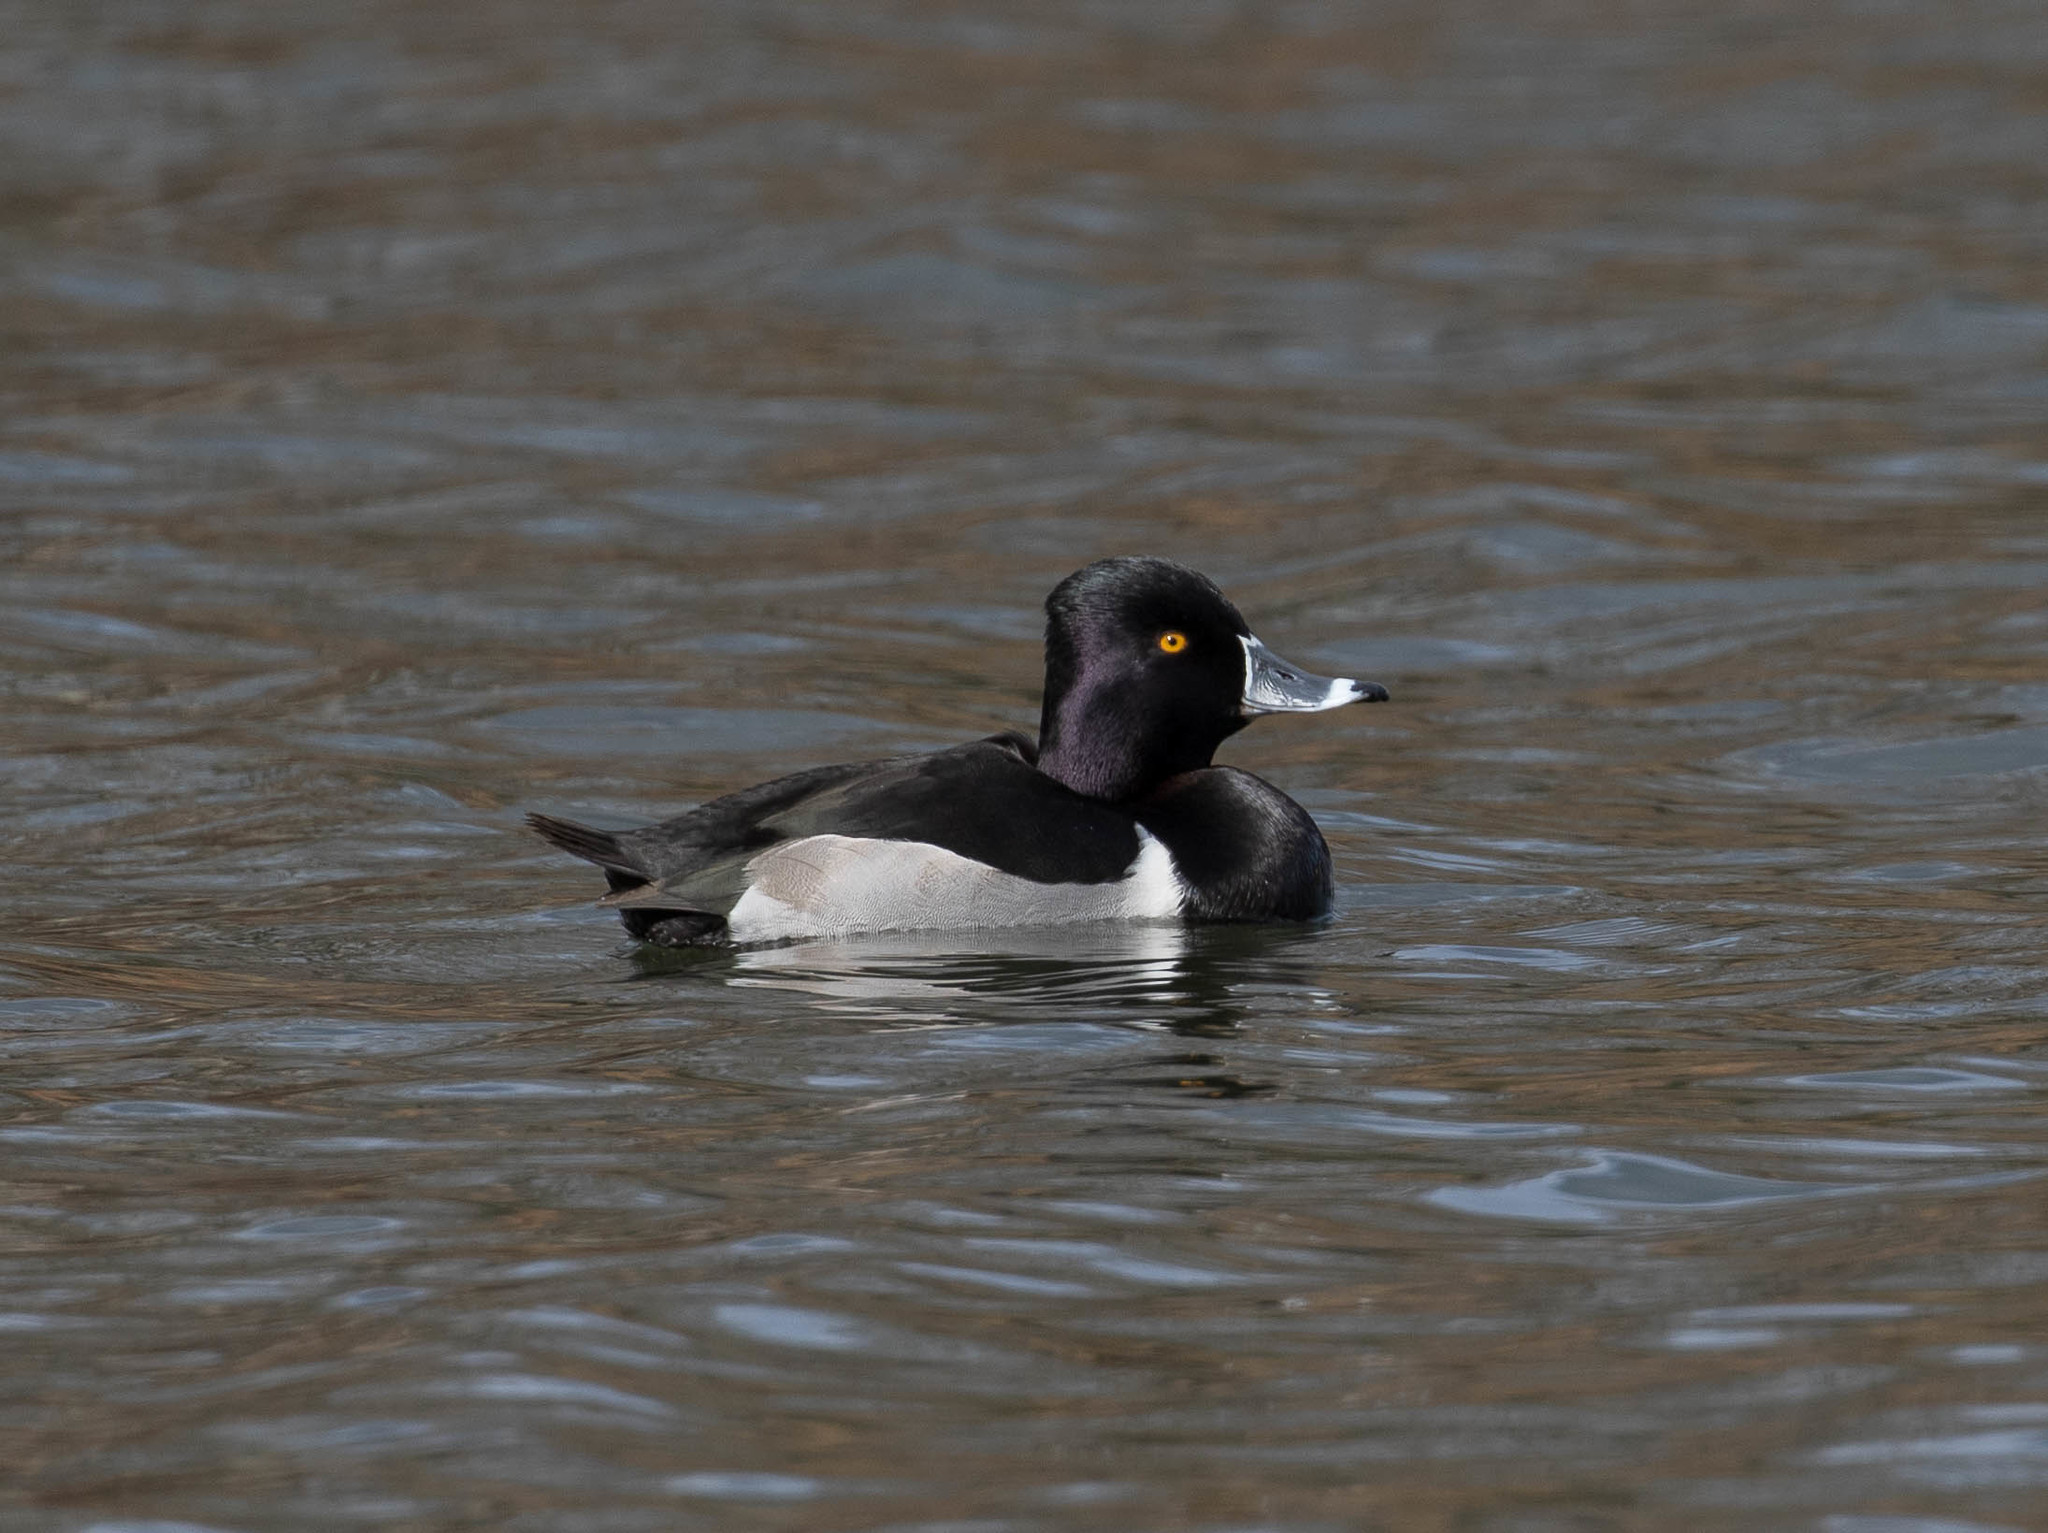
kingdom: Animalia
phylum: Chordata
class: Aves
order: Anseriformes
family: Anatidae
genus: Aythya
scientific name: Aythya collaris
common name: Ring-necked duck
